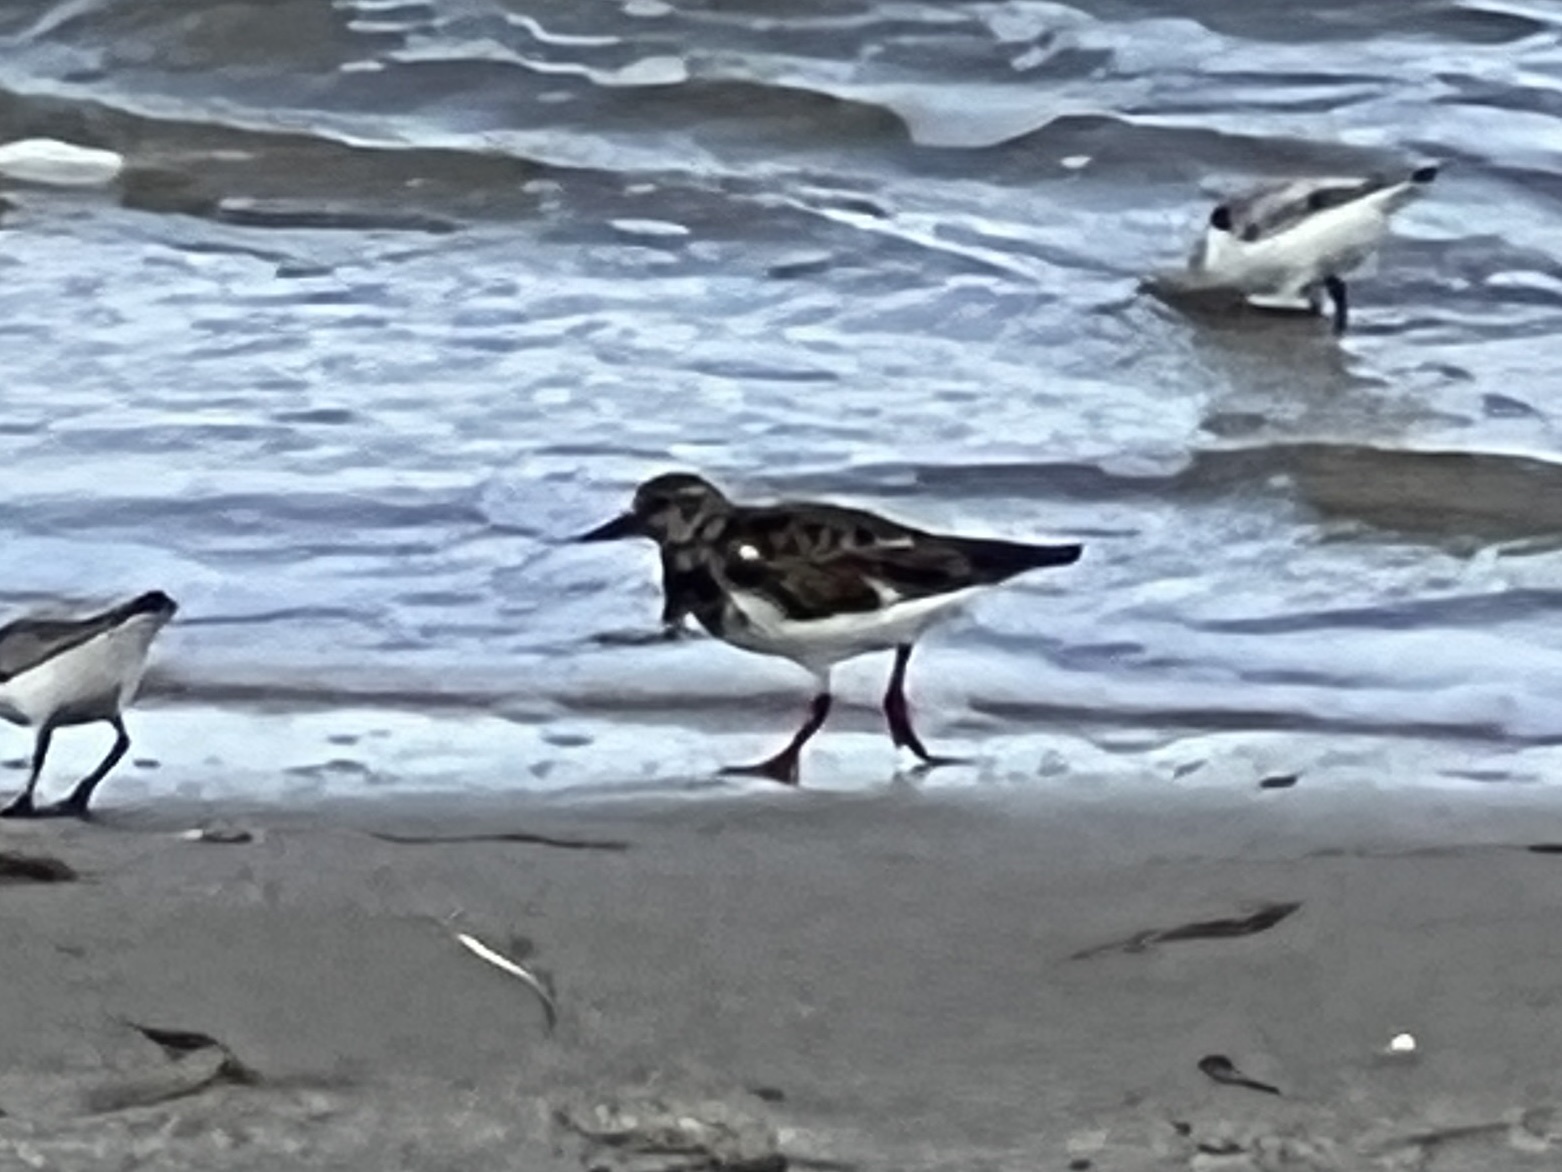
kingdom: Animalia
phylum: Chordata
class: Aves
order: Charadriiformes
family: Scolopacidae
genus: Arenaria
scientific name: Arenaria interpres
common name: Ruddy turnstone
